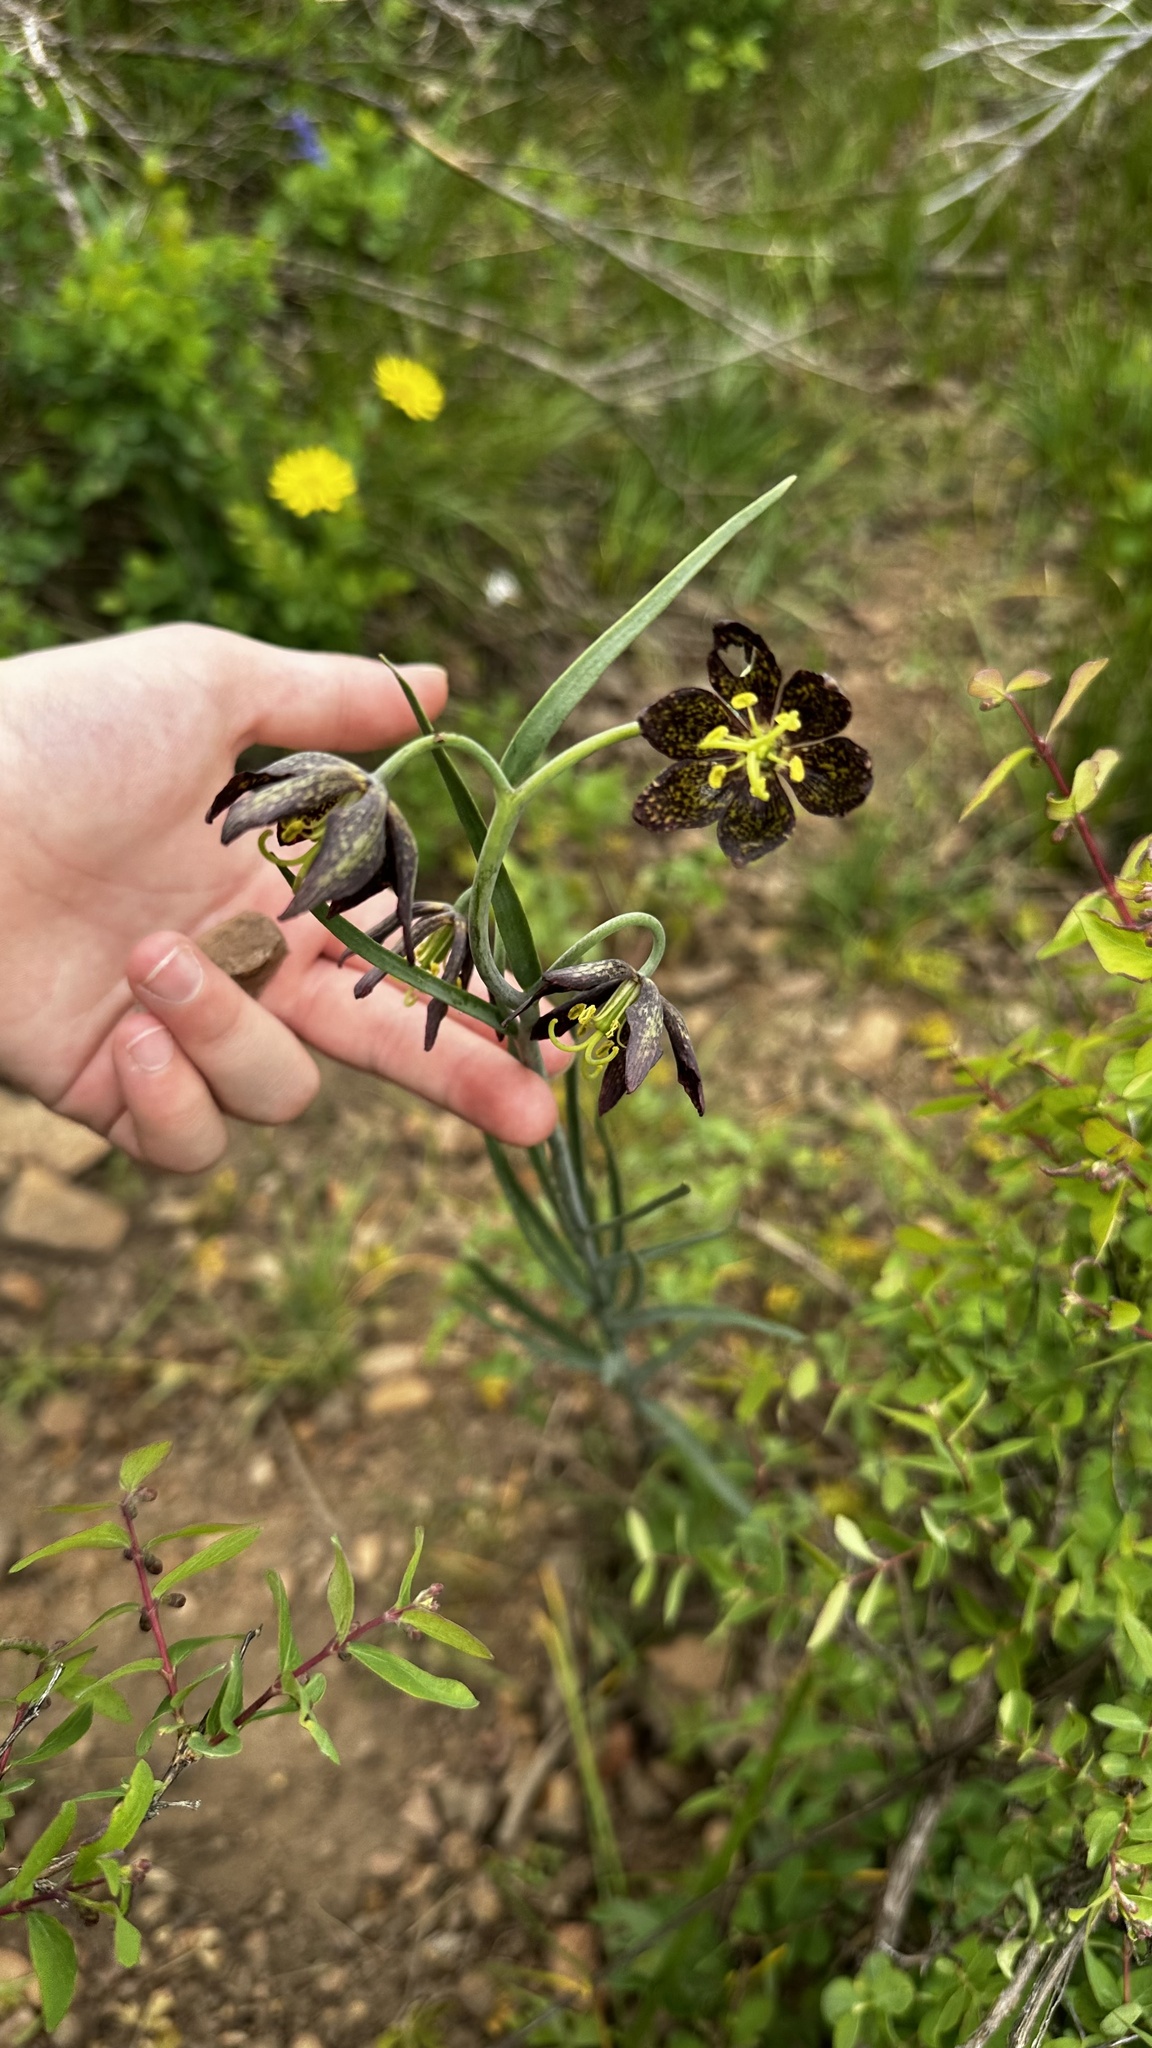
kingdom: Plantae
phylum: Tracheophyta
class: Liliopsida
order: Liliales
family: Liliaceae
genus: Fritillaria
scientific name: Fritillaria atropurpurea
